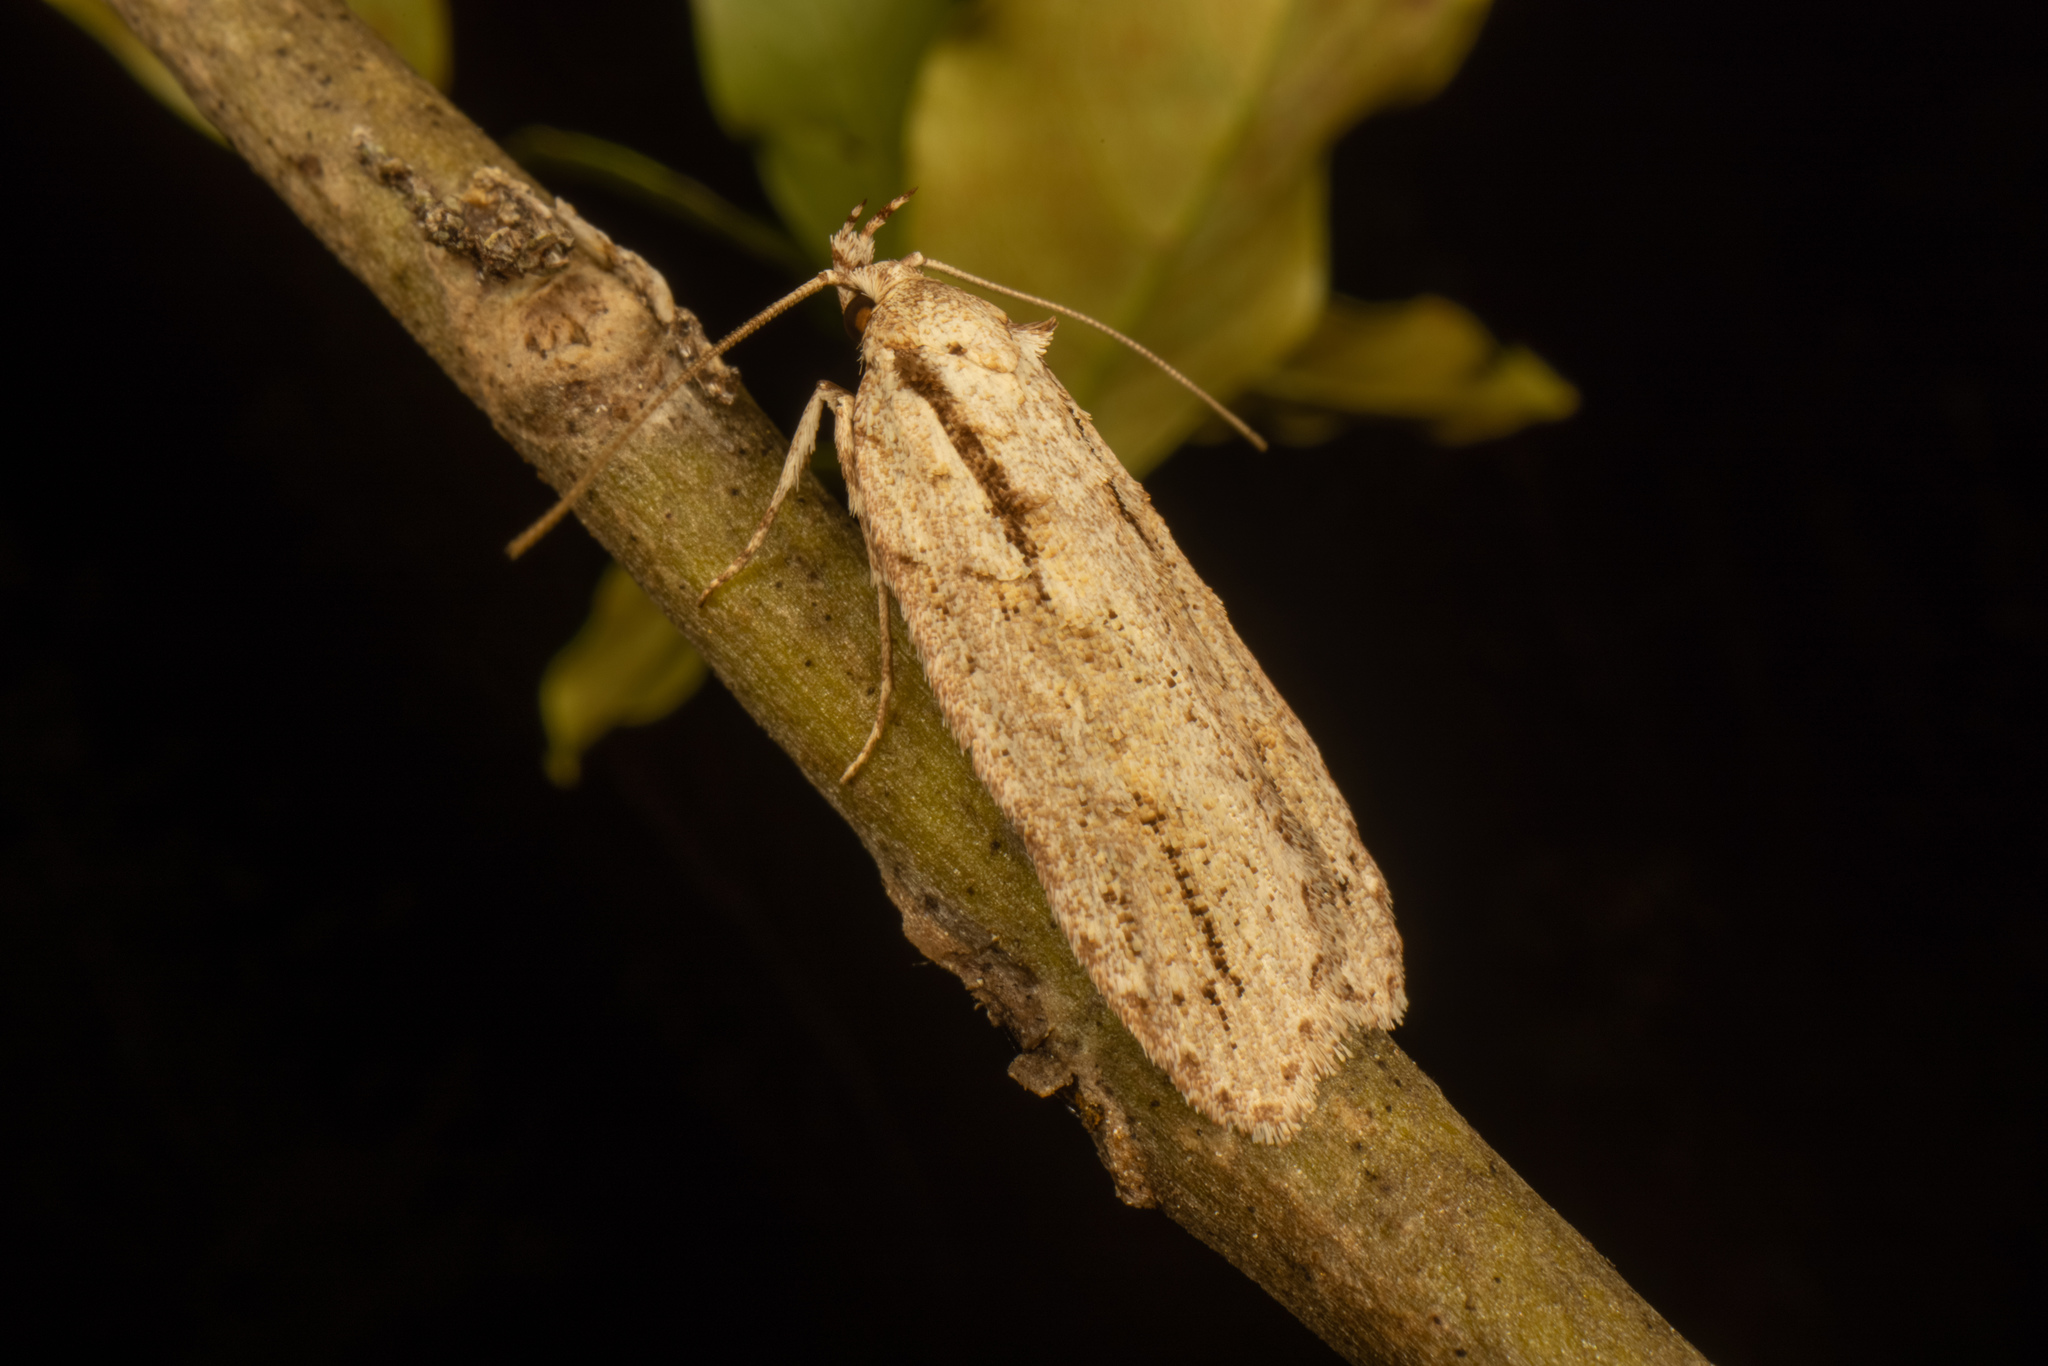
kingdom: Animalia
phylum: Arthropoda
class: Insecta
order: Lepidoptera
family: Oecophoridae
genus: Izatha
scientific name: Izatha attactella
